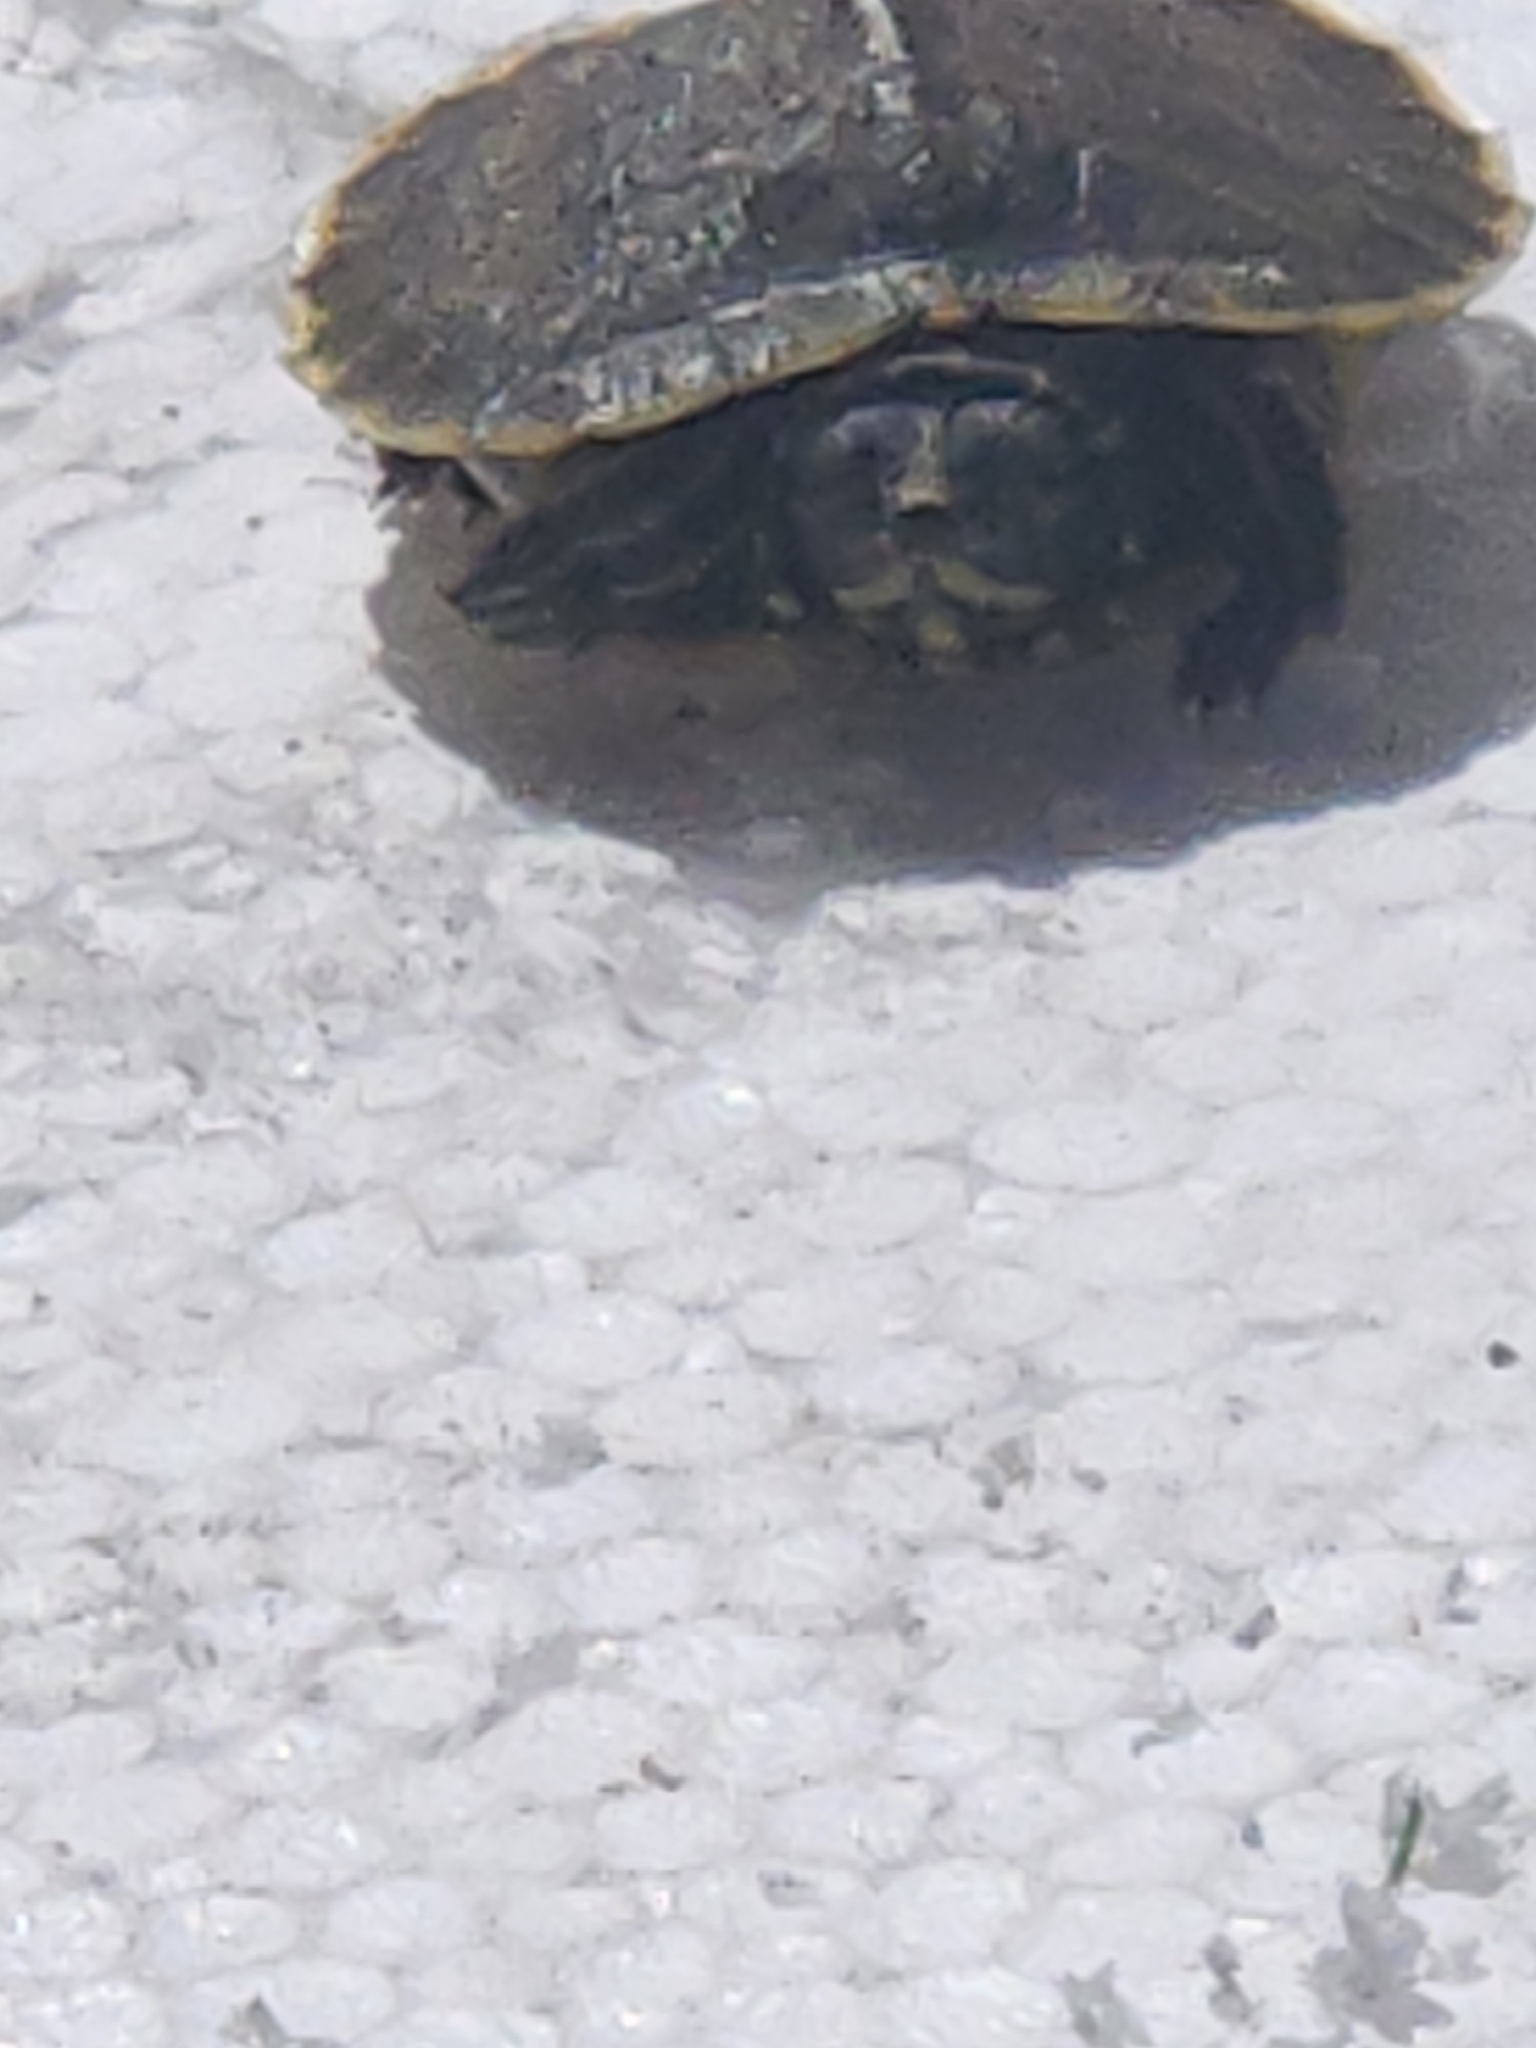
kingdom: Animalia
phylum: Chordata
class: Testudines
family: Emydidae
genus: Trachemys
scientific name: Trachemys scripta
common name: Slider
